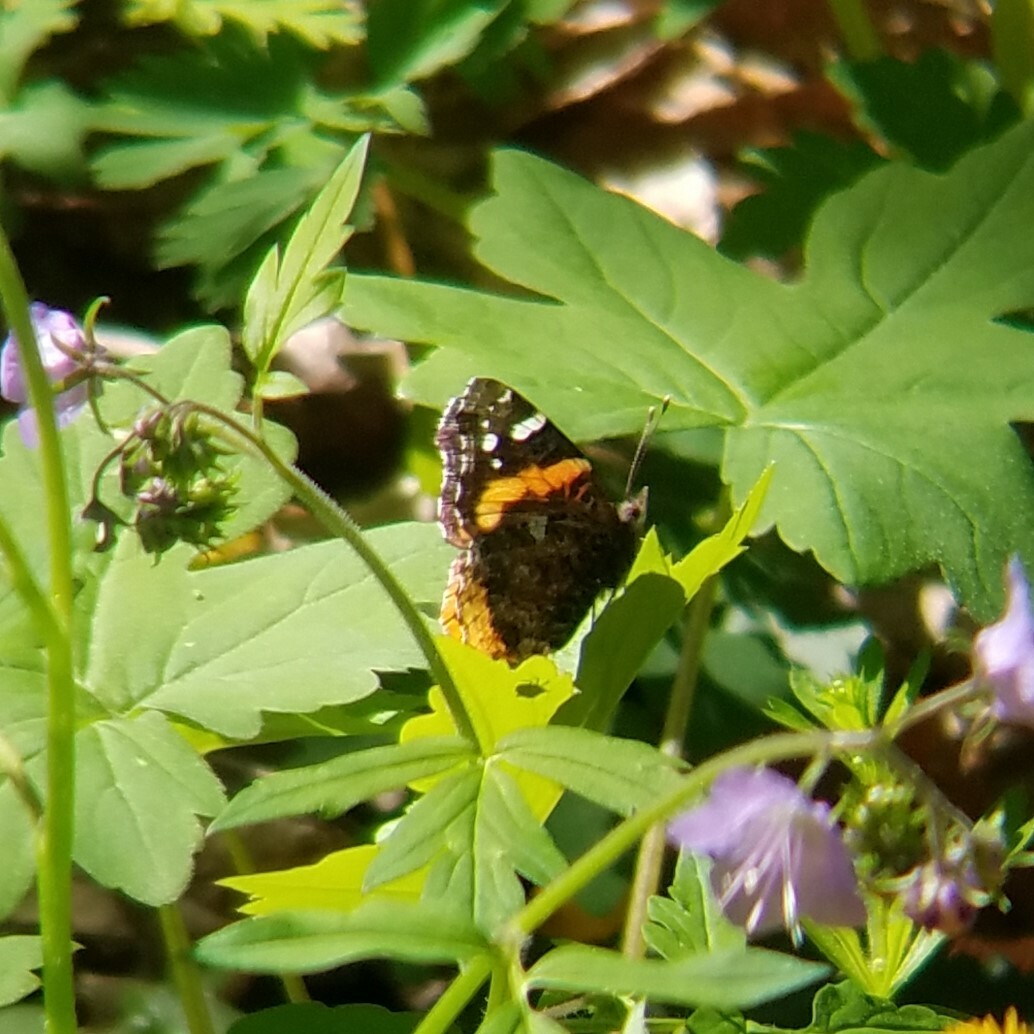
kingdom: Animalia
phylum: Arthropoda
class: Insecta
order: Lepidoptera
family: Nymphalidae
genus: Vanessa
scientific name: Vanessa atalanta
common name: Red admiral
